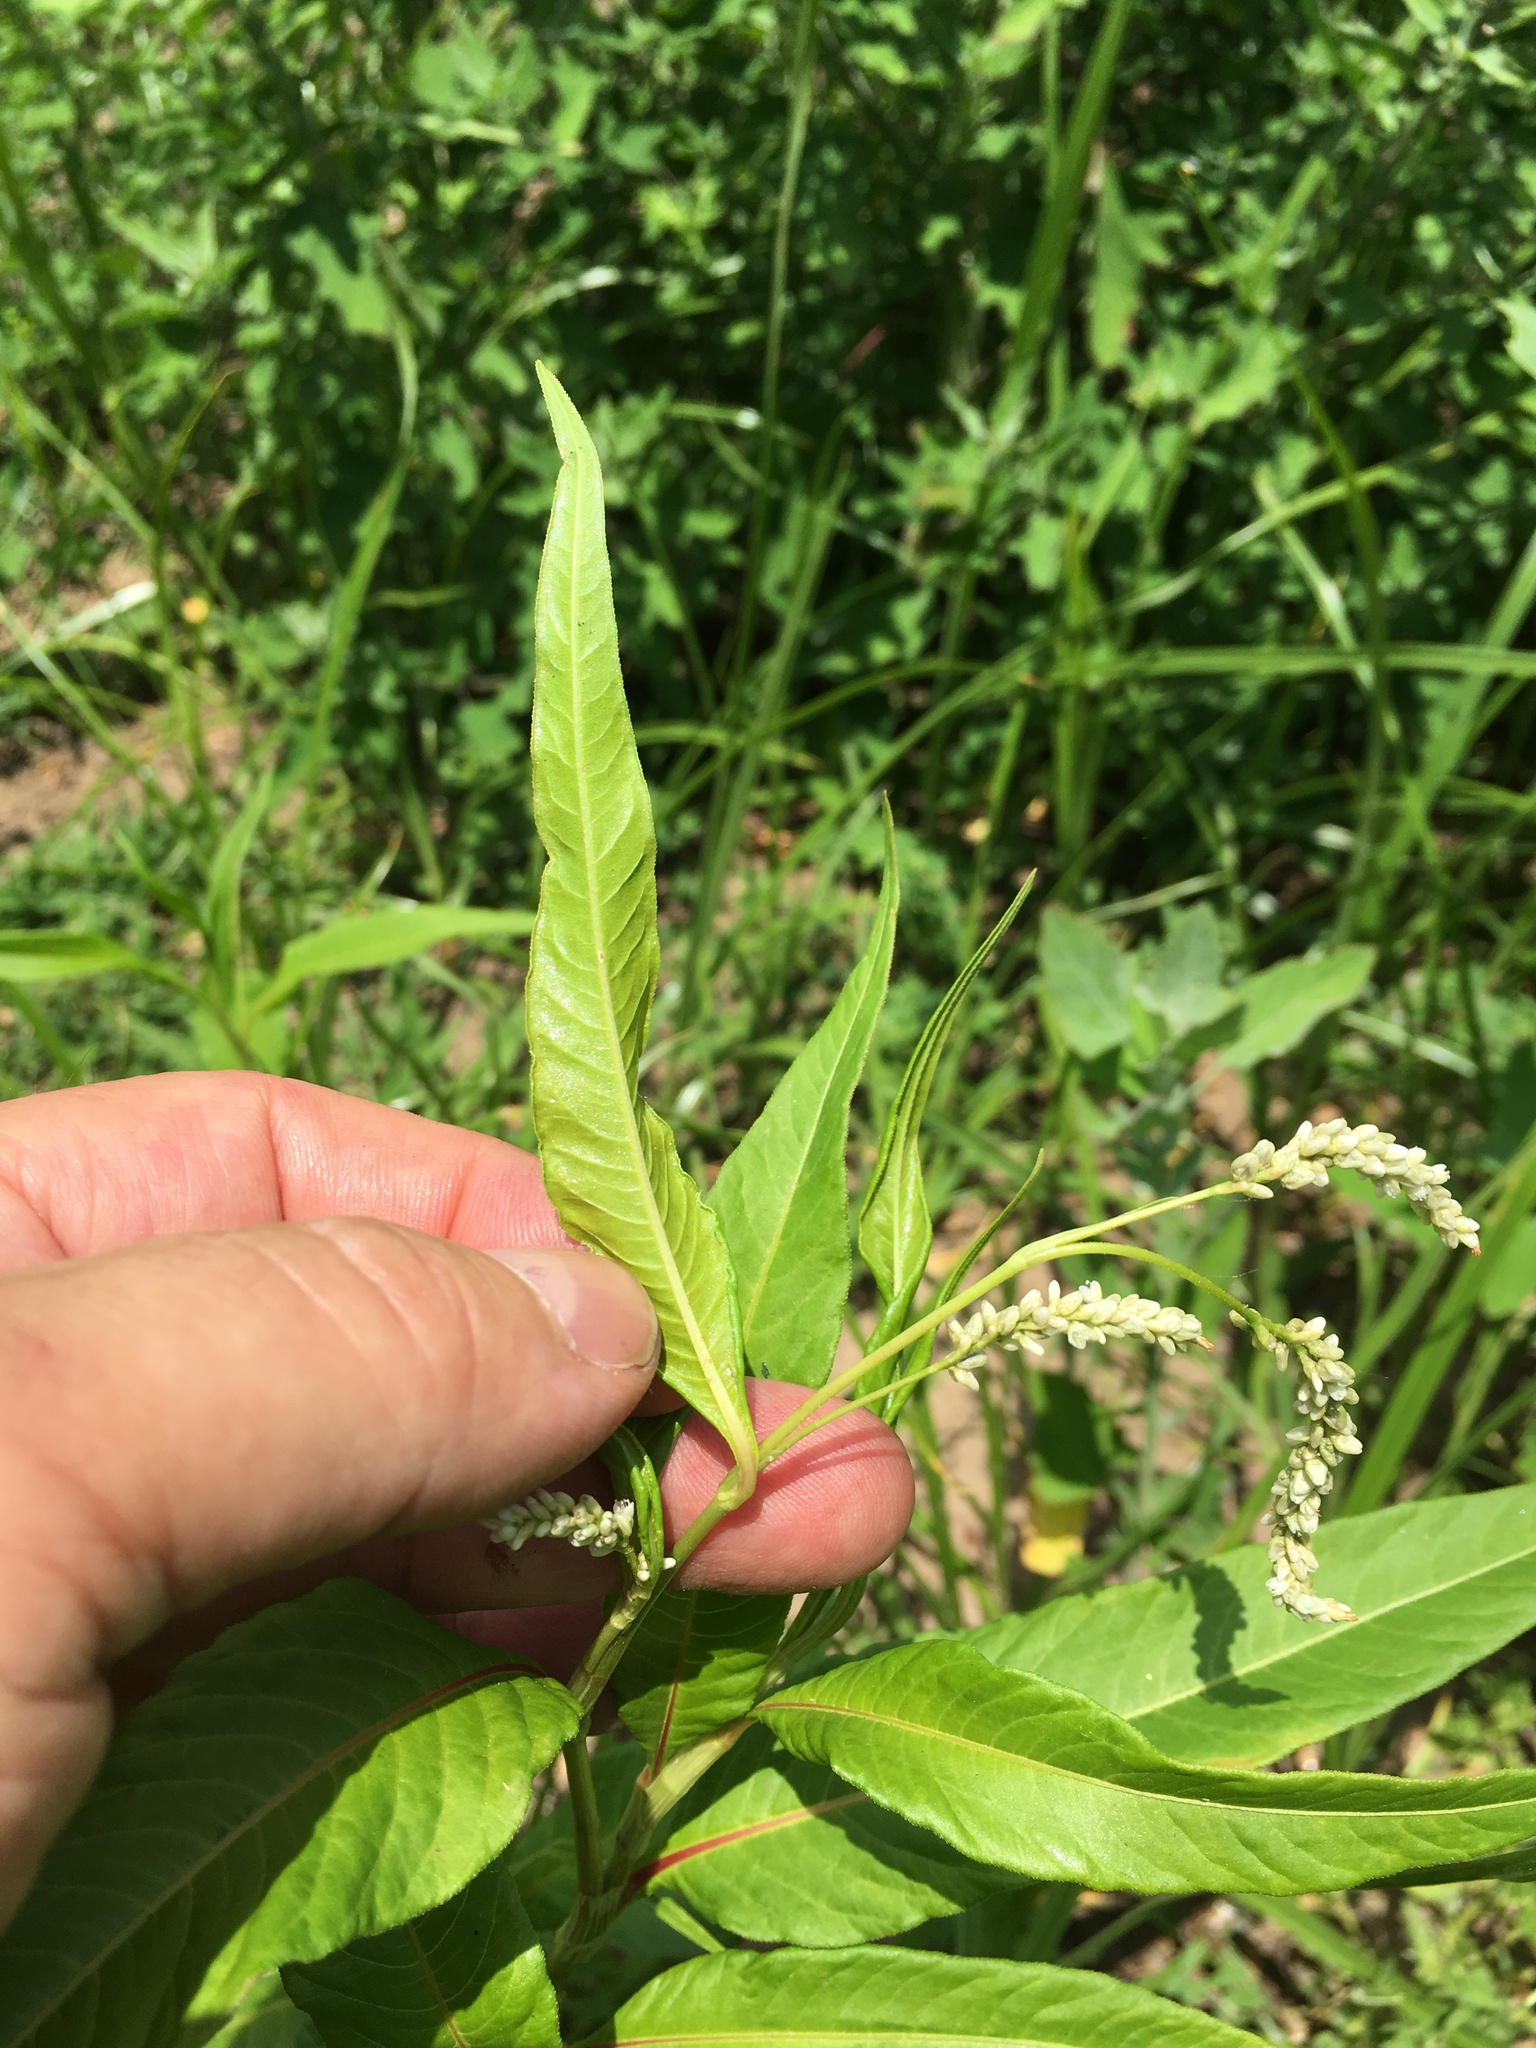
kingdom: Plantae
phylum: Tracheophyta
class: Magnoliopsida
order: Caryophyllales
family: Polygonaceae
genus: Persicaria
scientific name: Persicaria lapathifolia
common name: Curlytop knotweed
